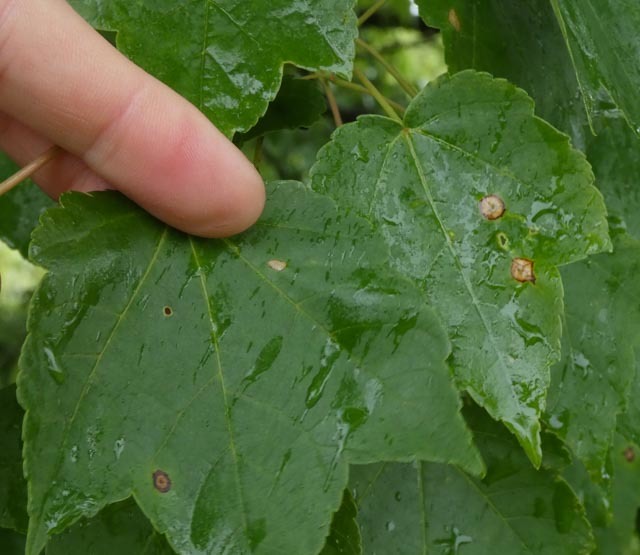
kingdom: Animalia
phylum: Arthropoda
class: Insecta
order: Diptera
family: Cecidomyiidae
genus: Acericecis
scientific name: Acericecis ocellaris
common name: Ocellate gall midge
